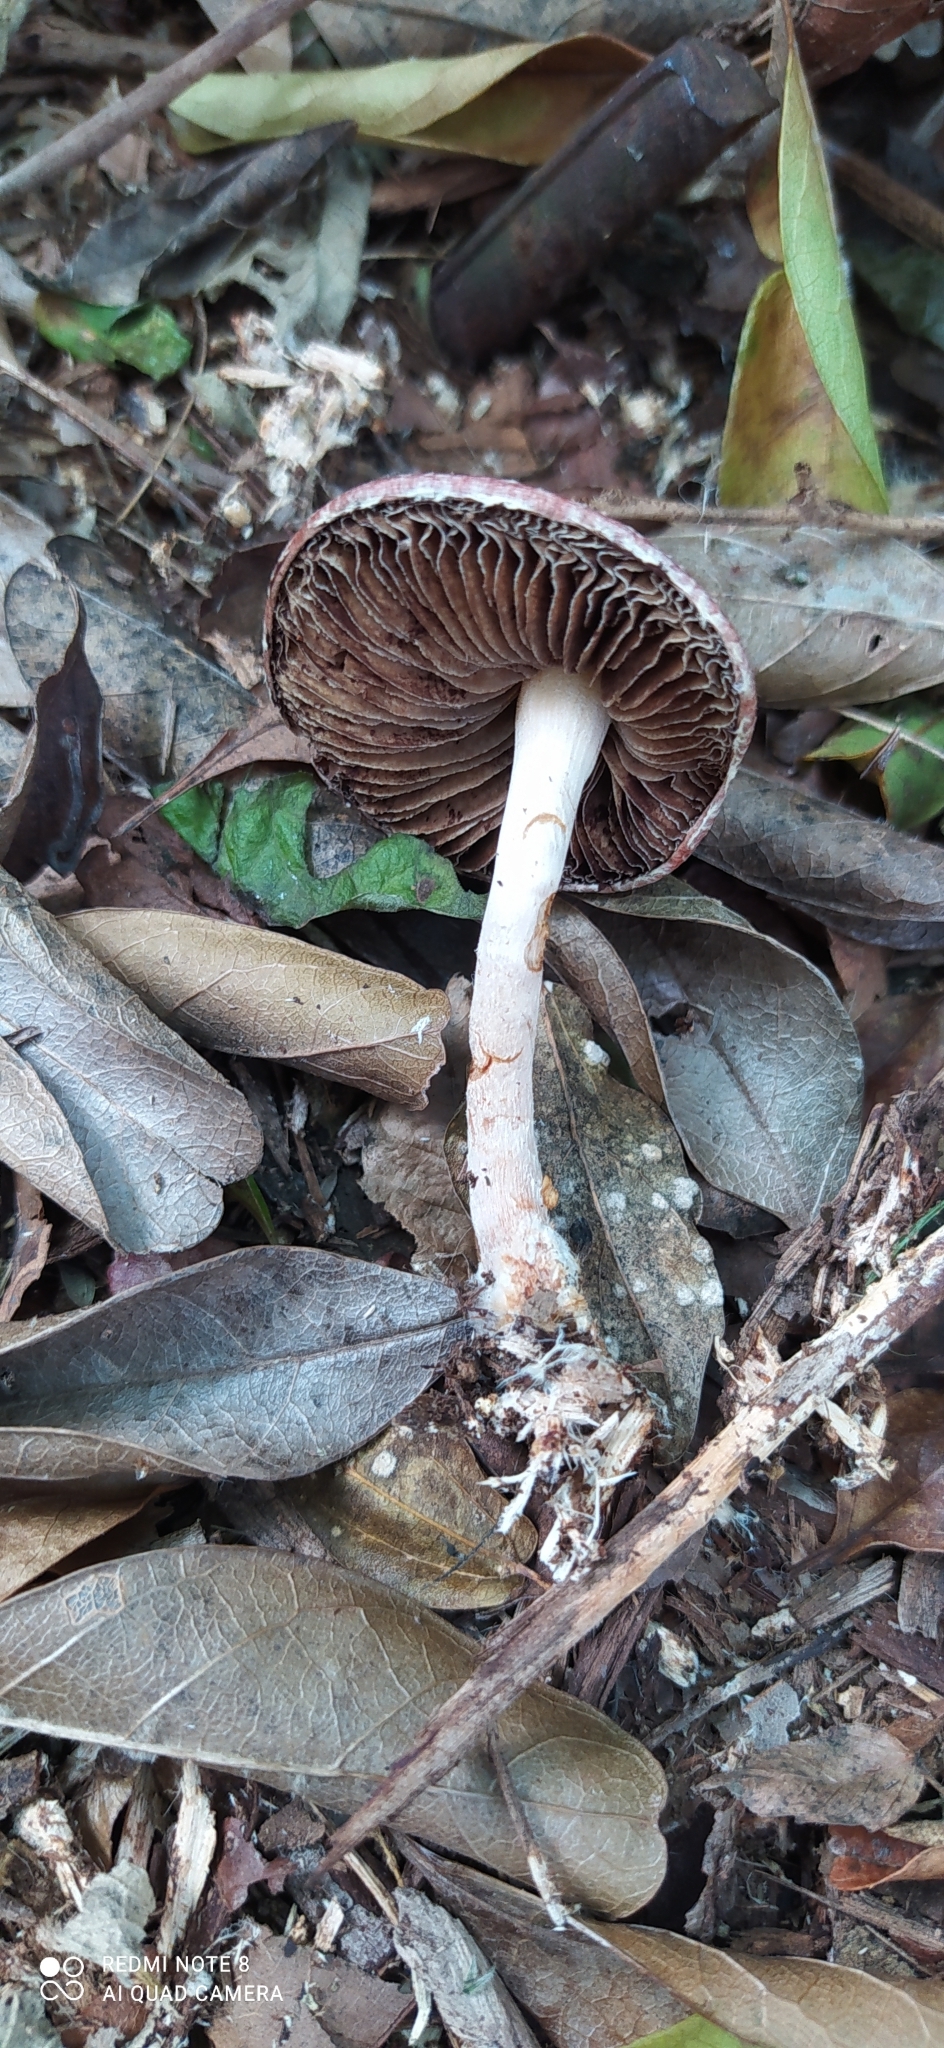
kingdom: Fungi
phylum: Basidiomycota
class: Agaricomycetes
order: Agaricales
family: Strophariaceae
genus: Leratiomyces
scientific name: Leratiomyces ceres
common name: Redlead roundhead
